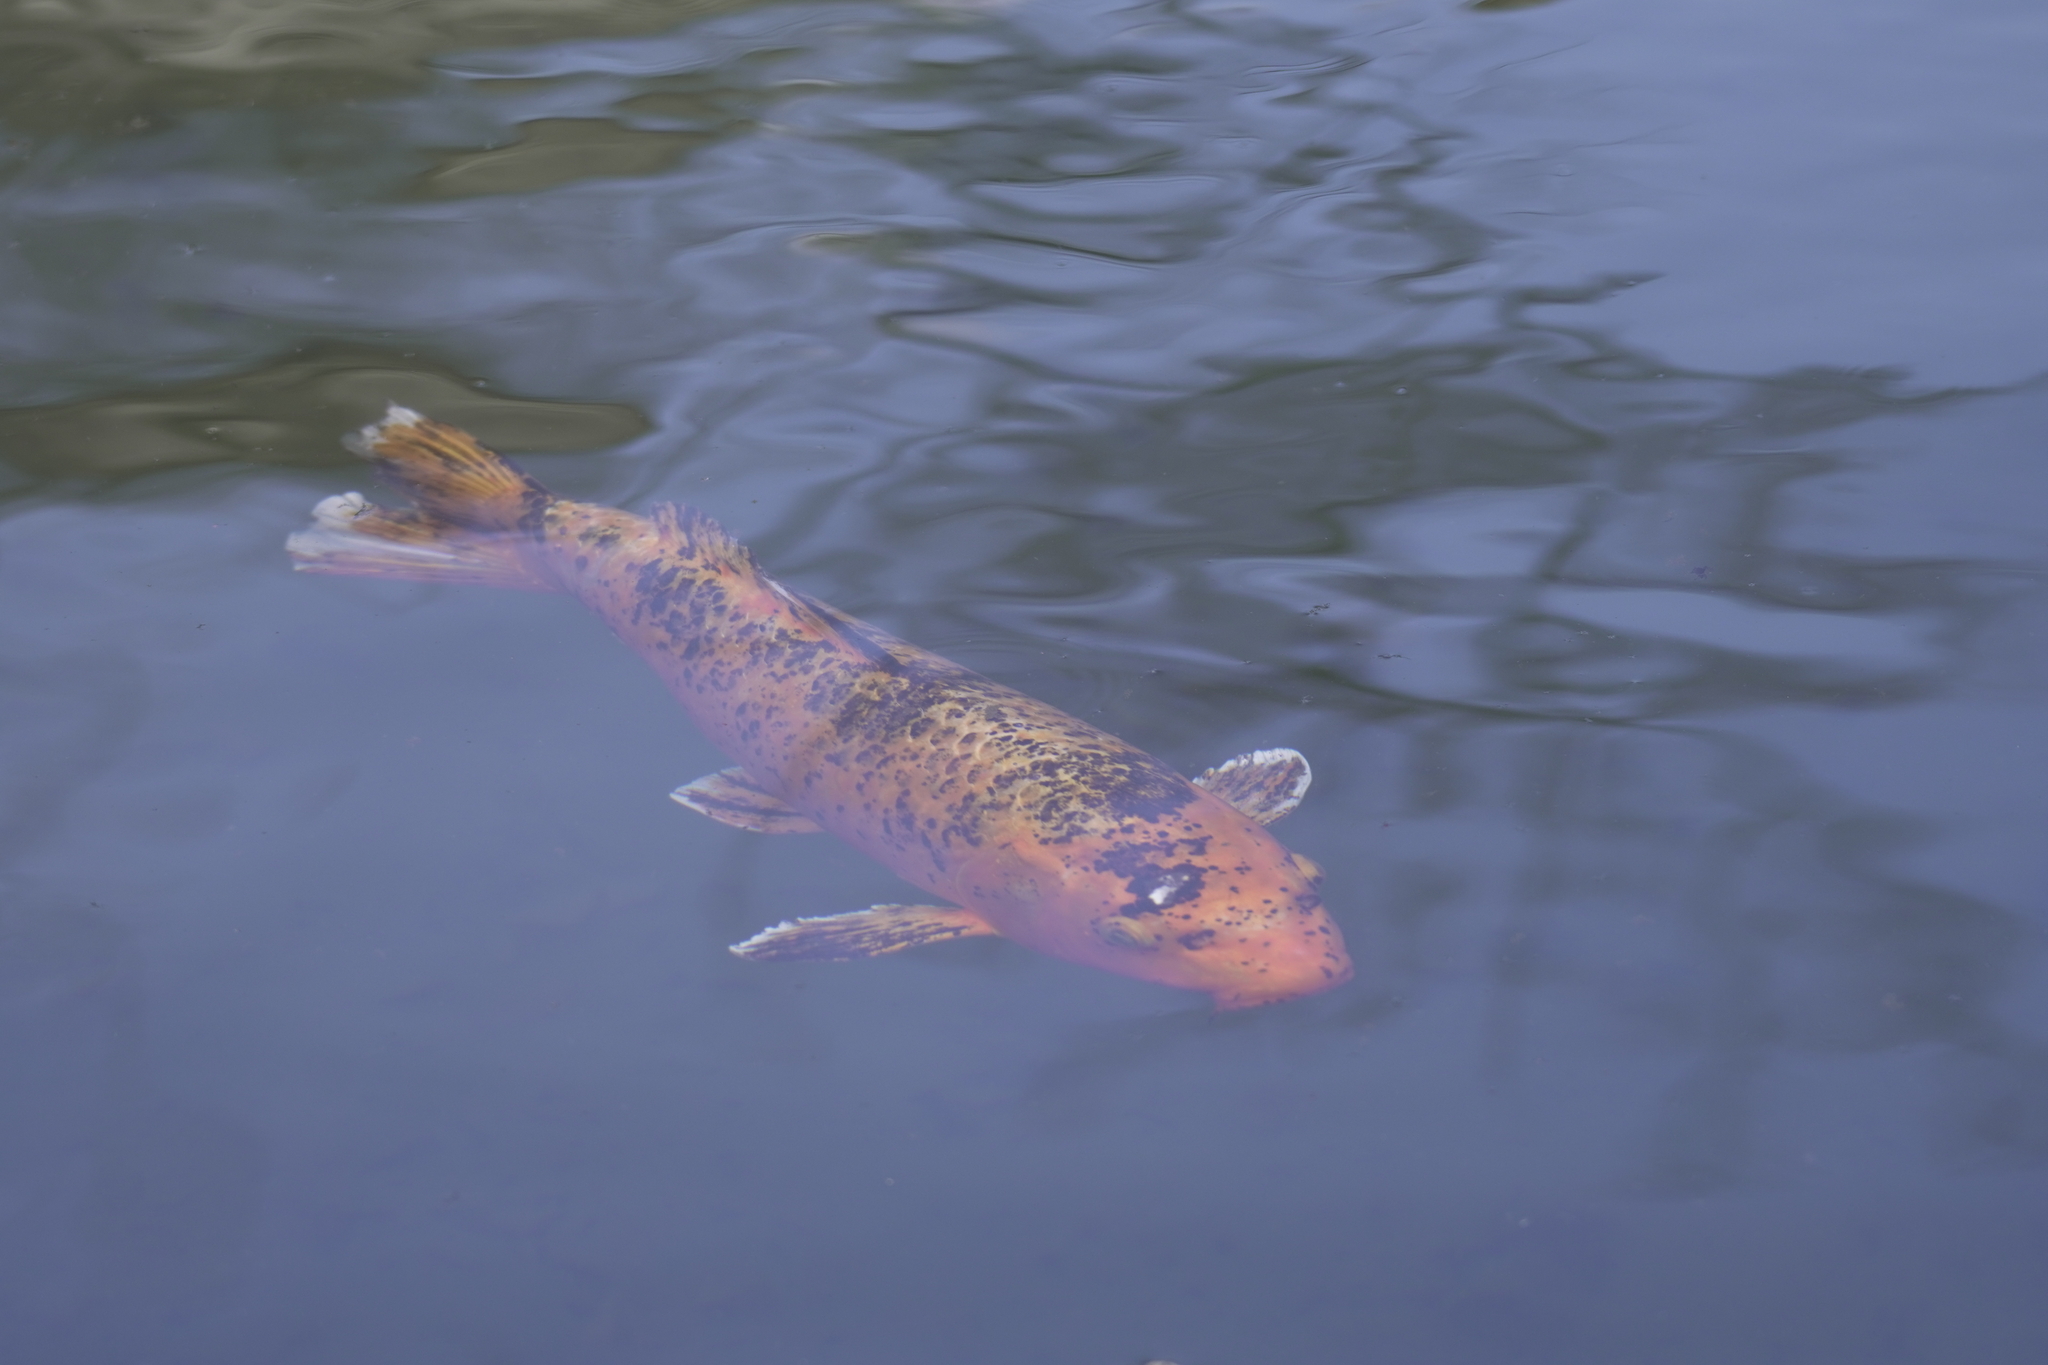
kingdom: Animalia
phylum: Chordata
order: Cypriniformes
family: Cyprinidae
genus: Cyprinus
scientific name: Cyprinus rubrofuscus
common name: Koi
